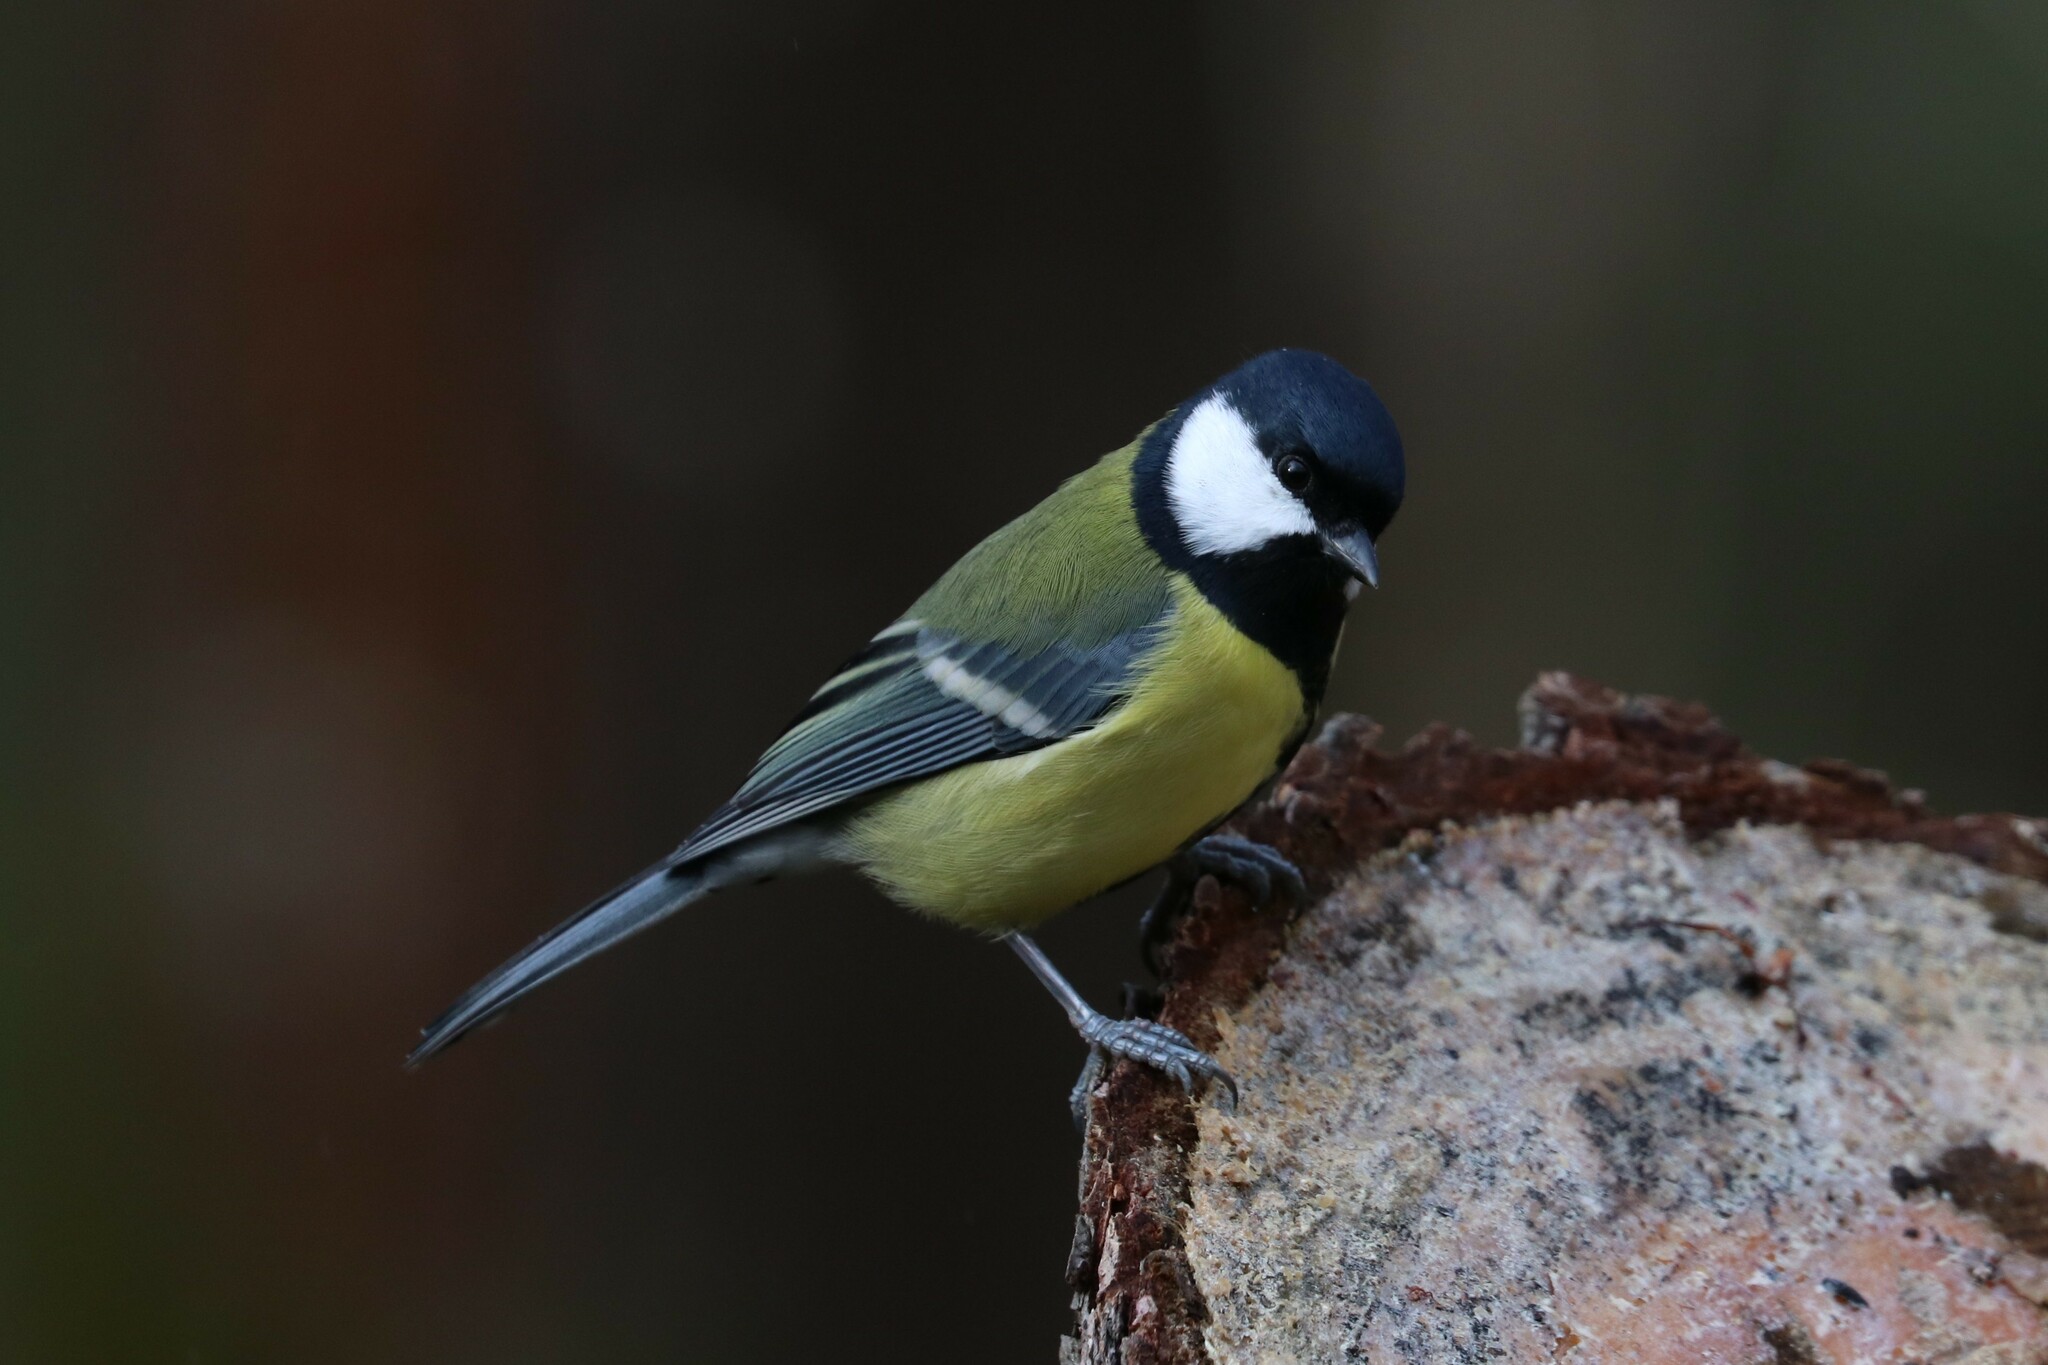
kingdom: Animalia
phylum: Chordata
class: Aves
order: Passeriformes
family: Paridae
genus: Parus
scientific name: Parus major
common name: Great tit
